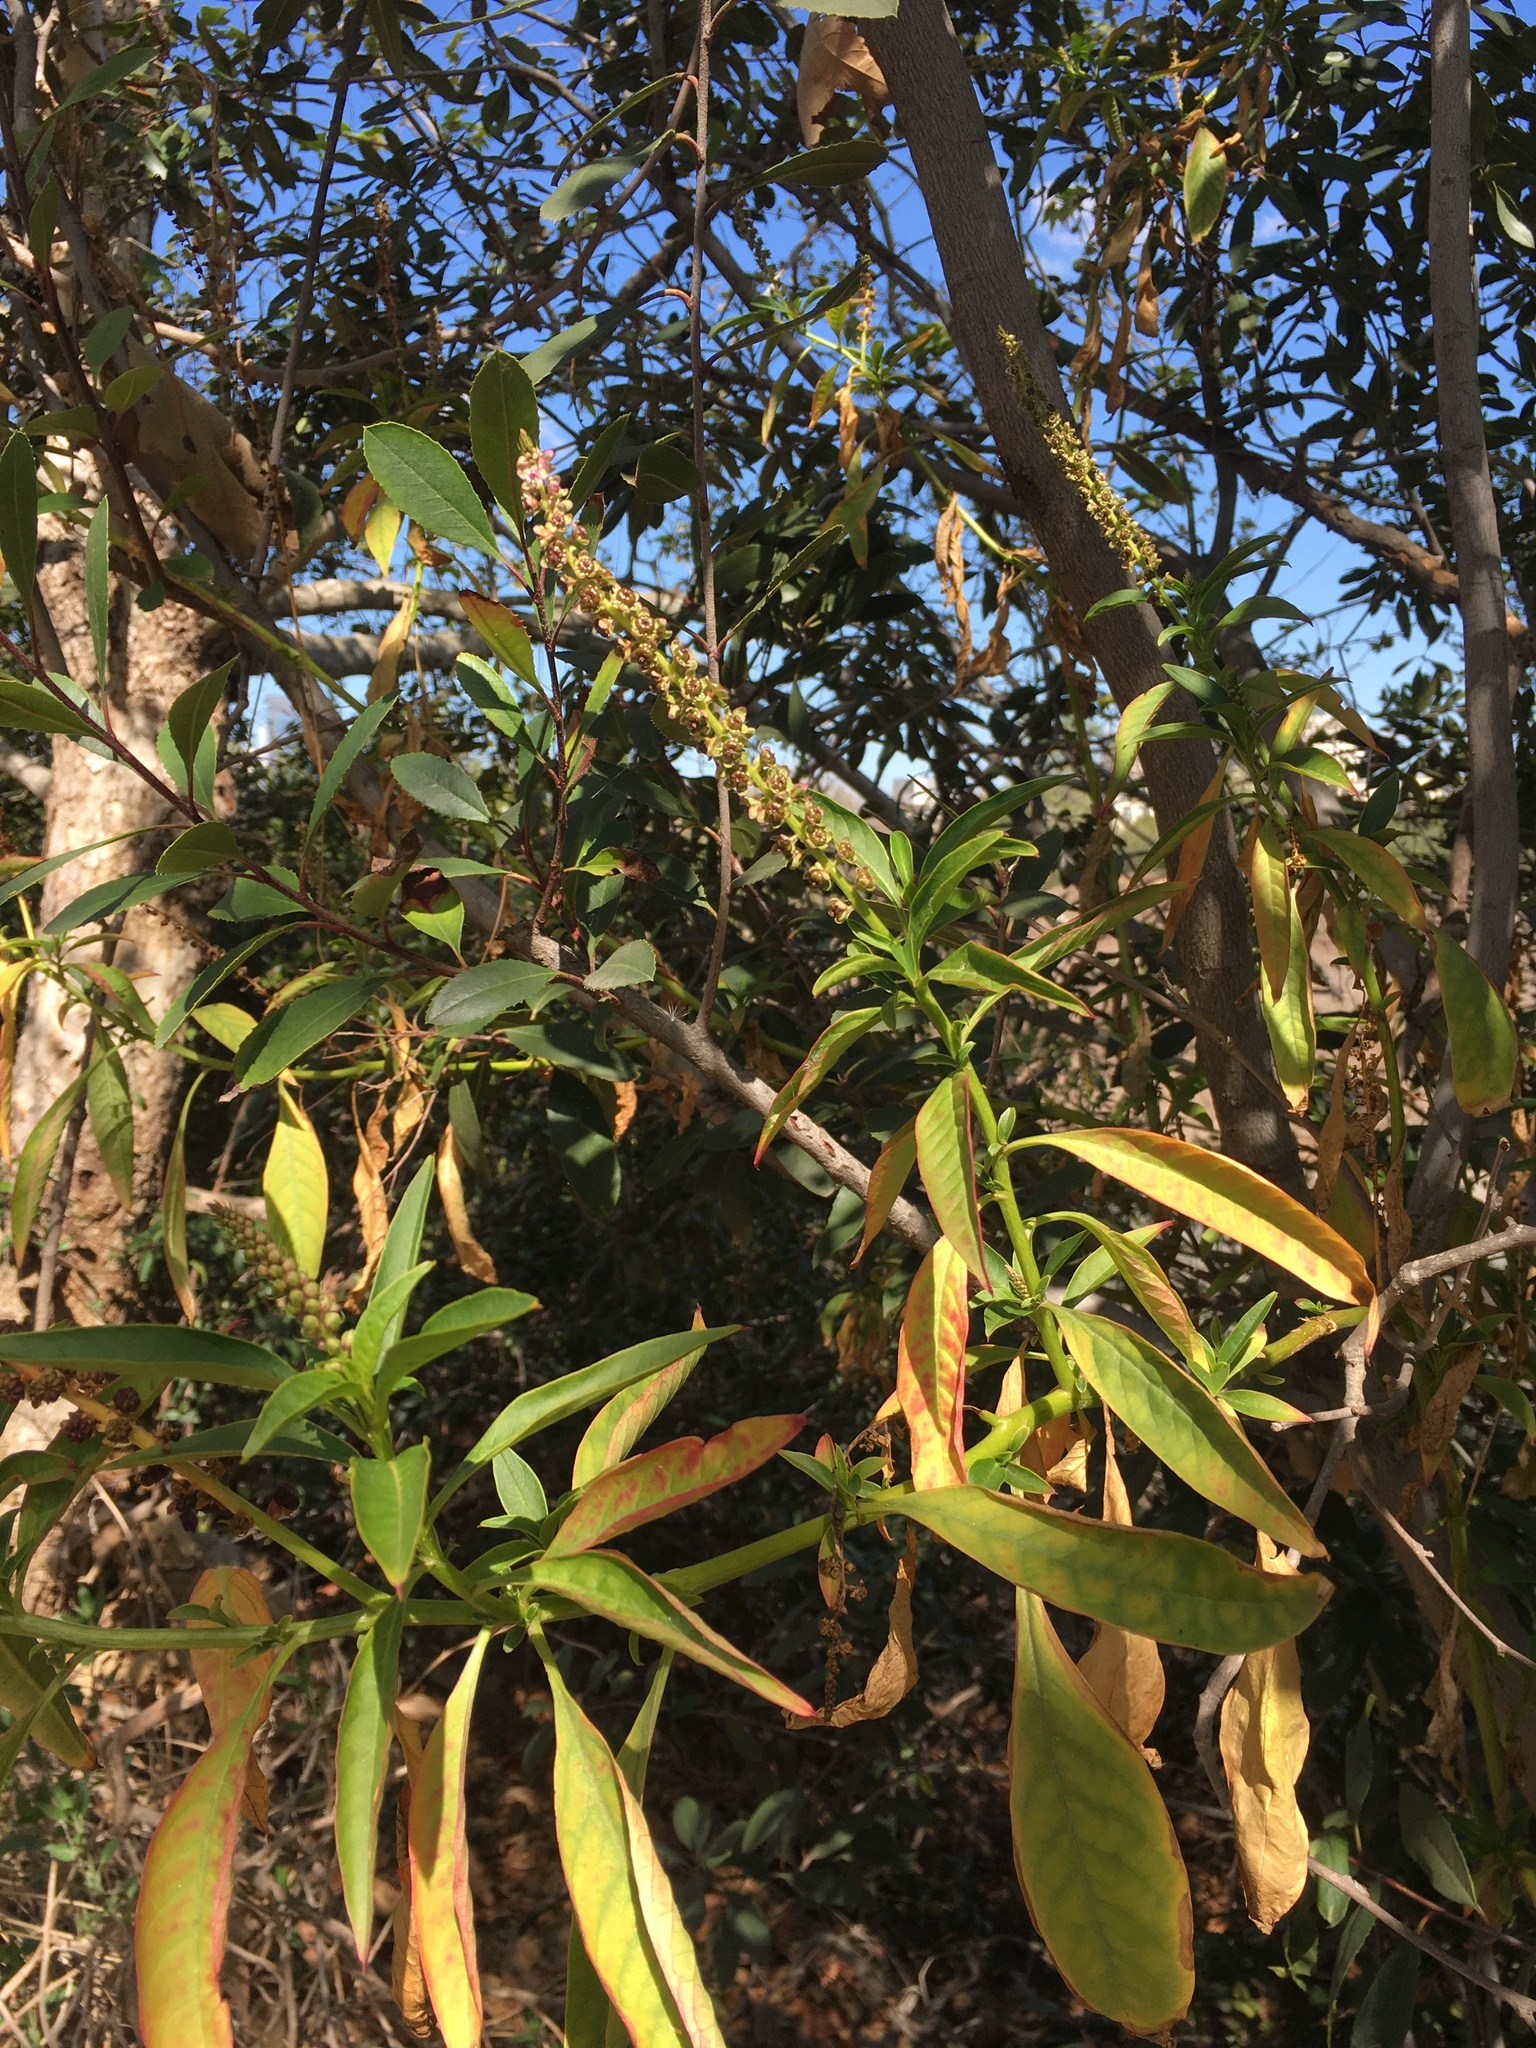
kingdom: Plantae
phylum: Tracheophyta
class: Magnoliopsida
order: Caryophyllales
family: Phytolaccaceae
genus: Phytolacca
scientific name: Phytolacca icosandra
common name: Button pokeweed
